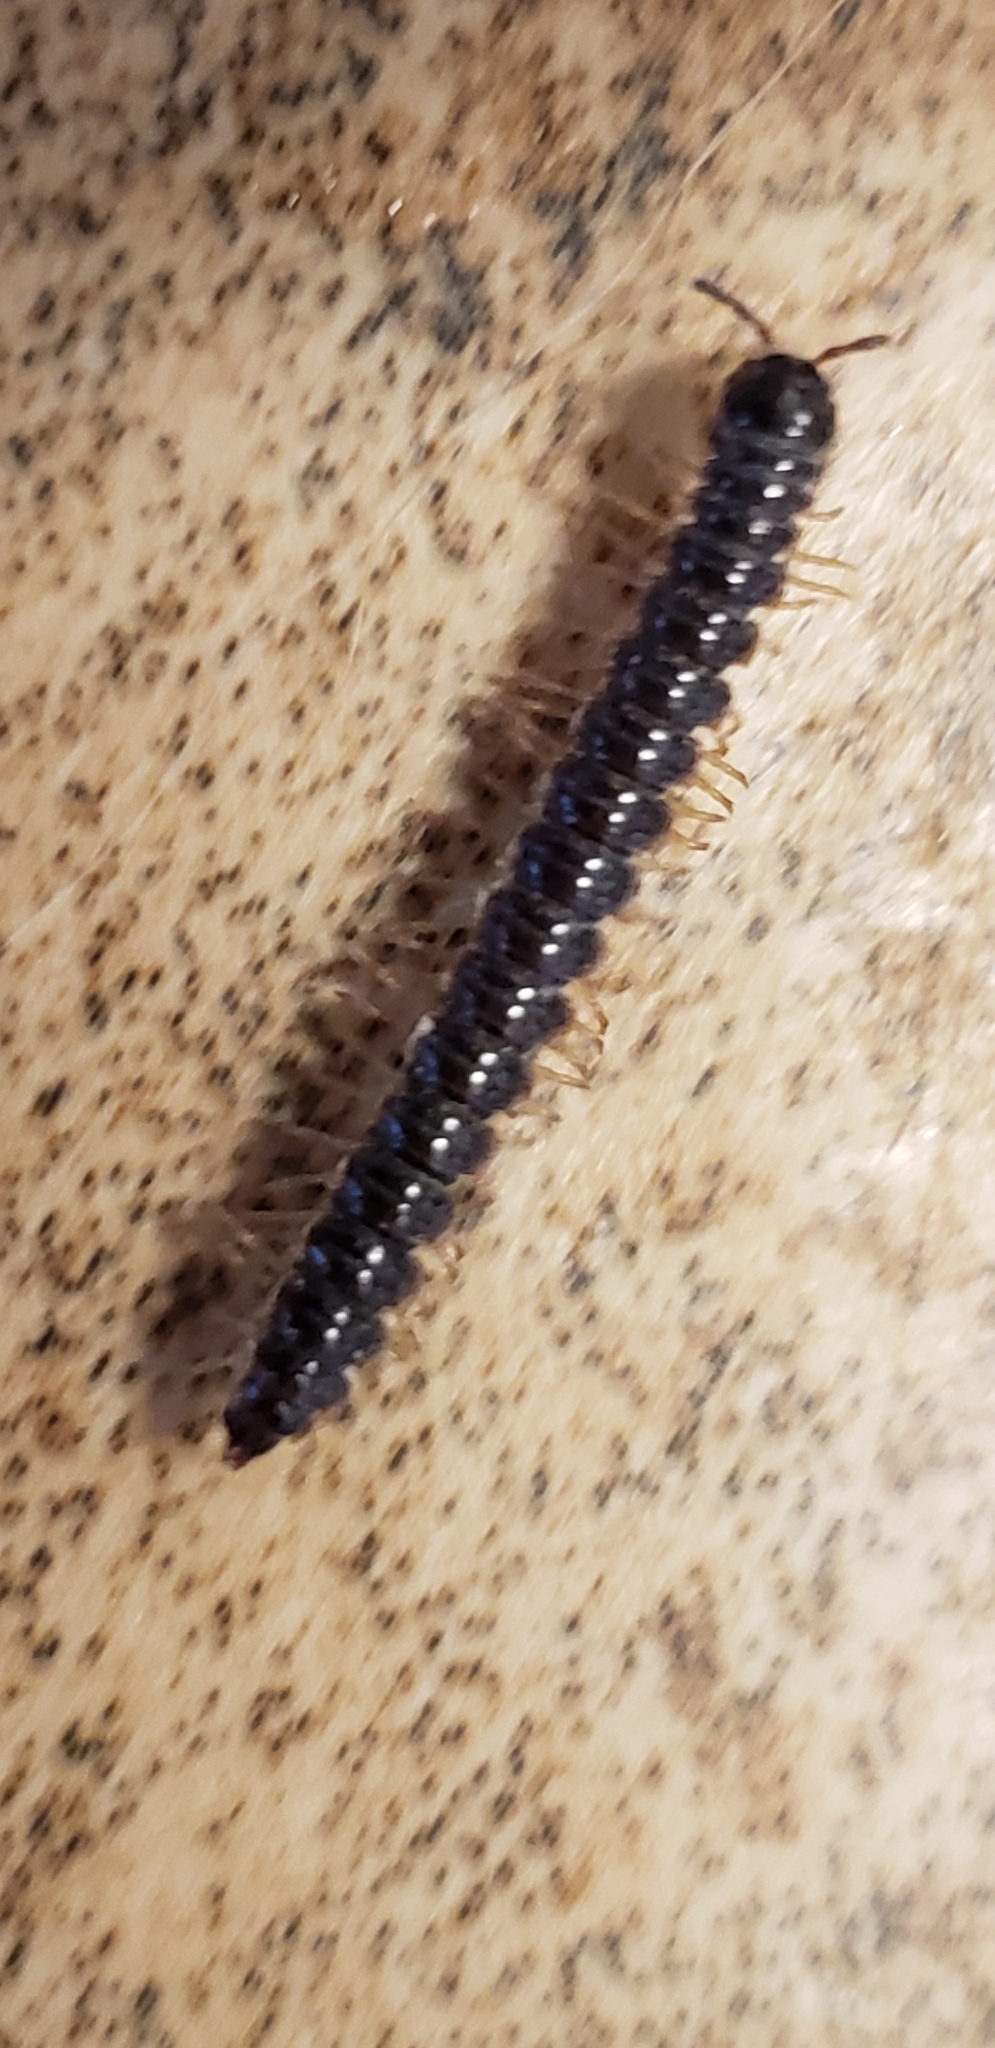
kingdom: Animalia
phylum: Arthropoda
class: Diplopoda
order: Polydesmida
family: Paradoxosomatidae
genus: Oxidus
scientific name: Oxidus gracilis
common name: Greenhouse millipede
